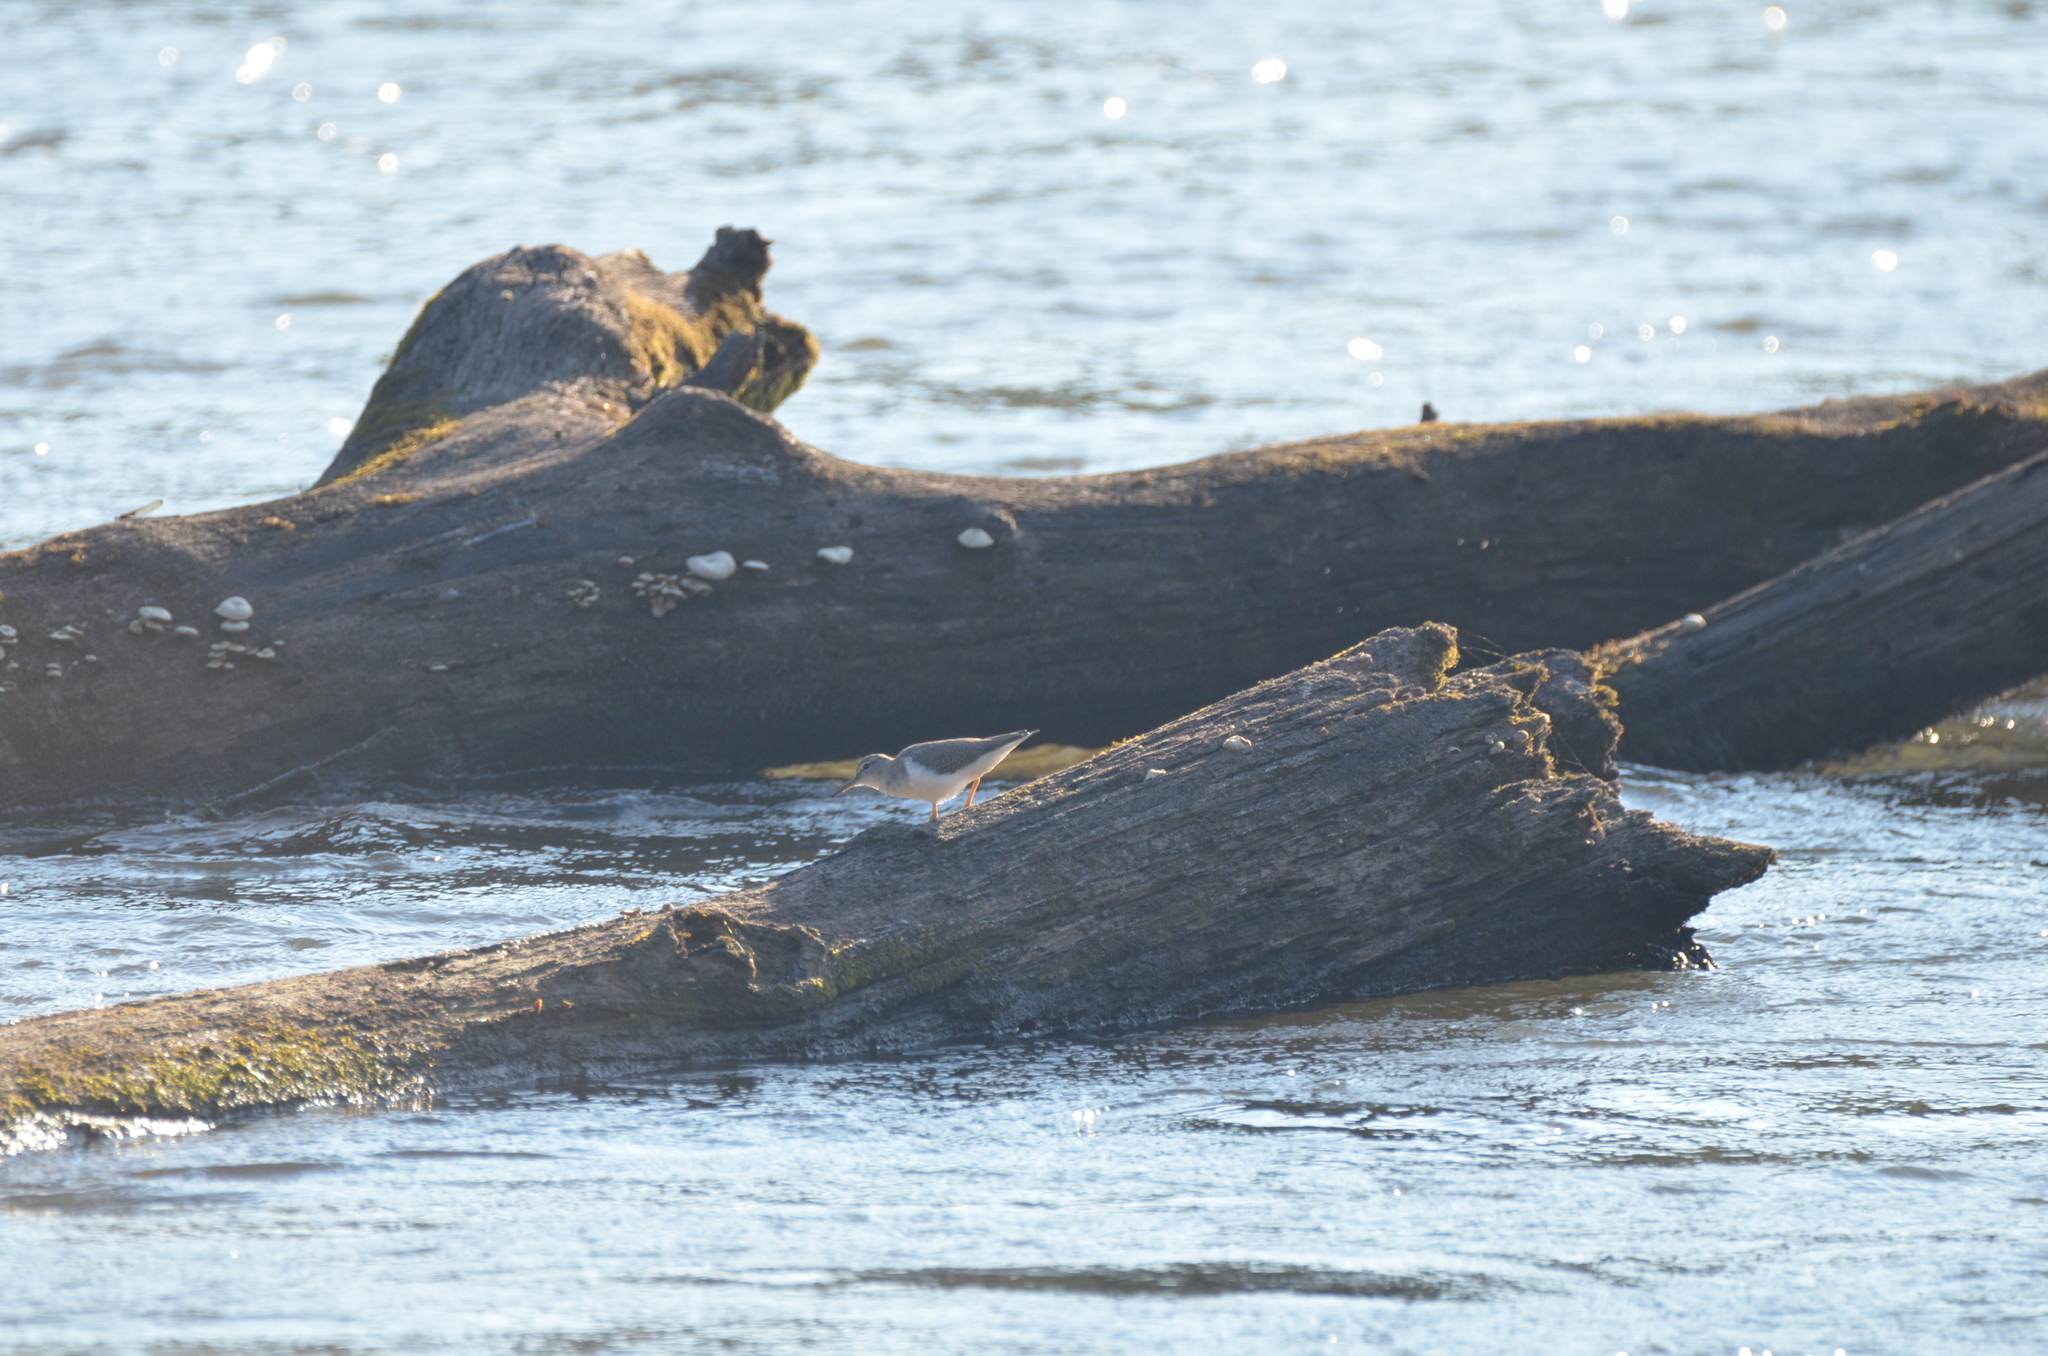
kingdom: Animalia
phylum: Chordata
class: Aves
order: Charadriiformes
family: Scolopacidae
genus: Actitis
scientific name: Actitis macularius
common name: Spotted sandpiper
